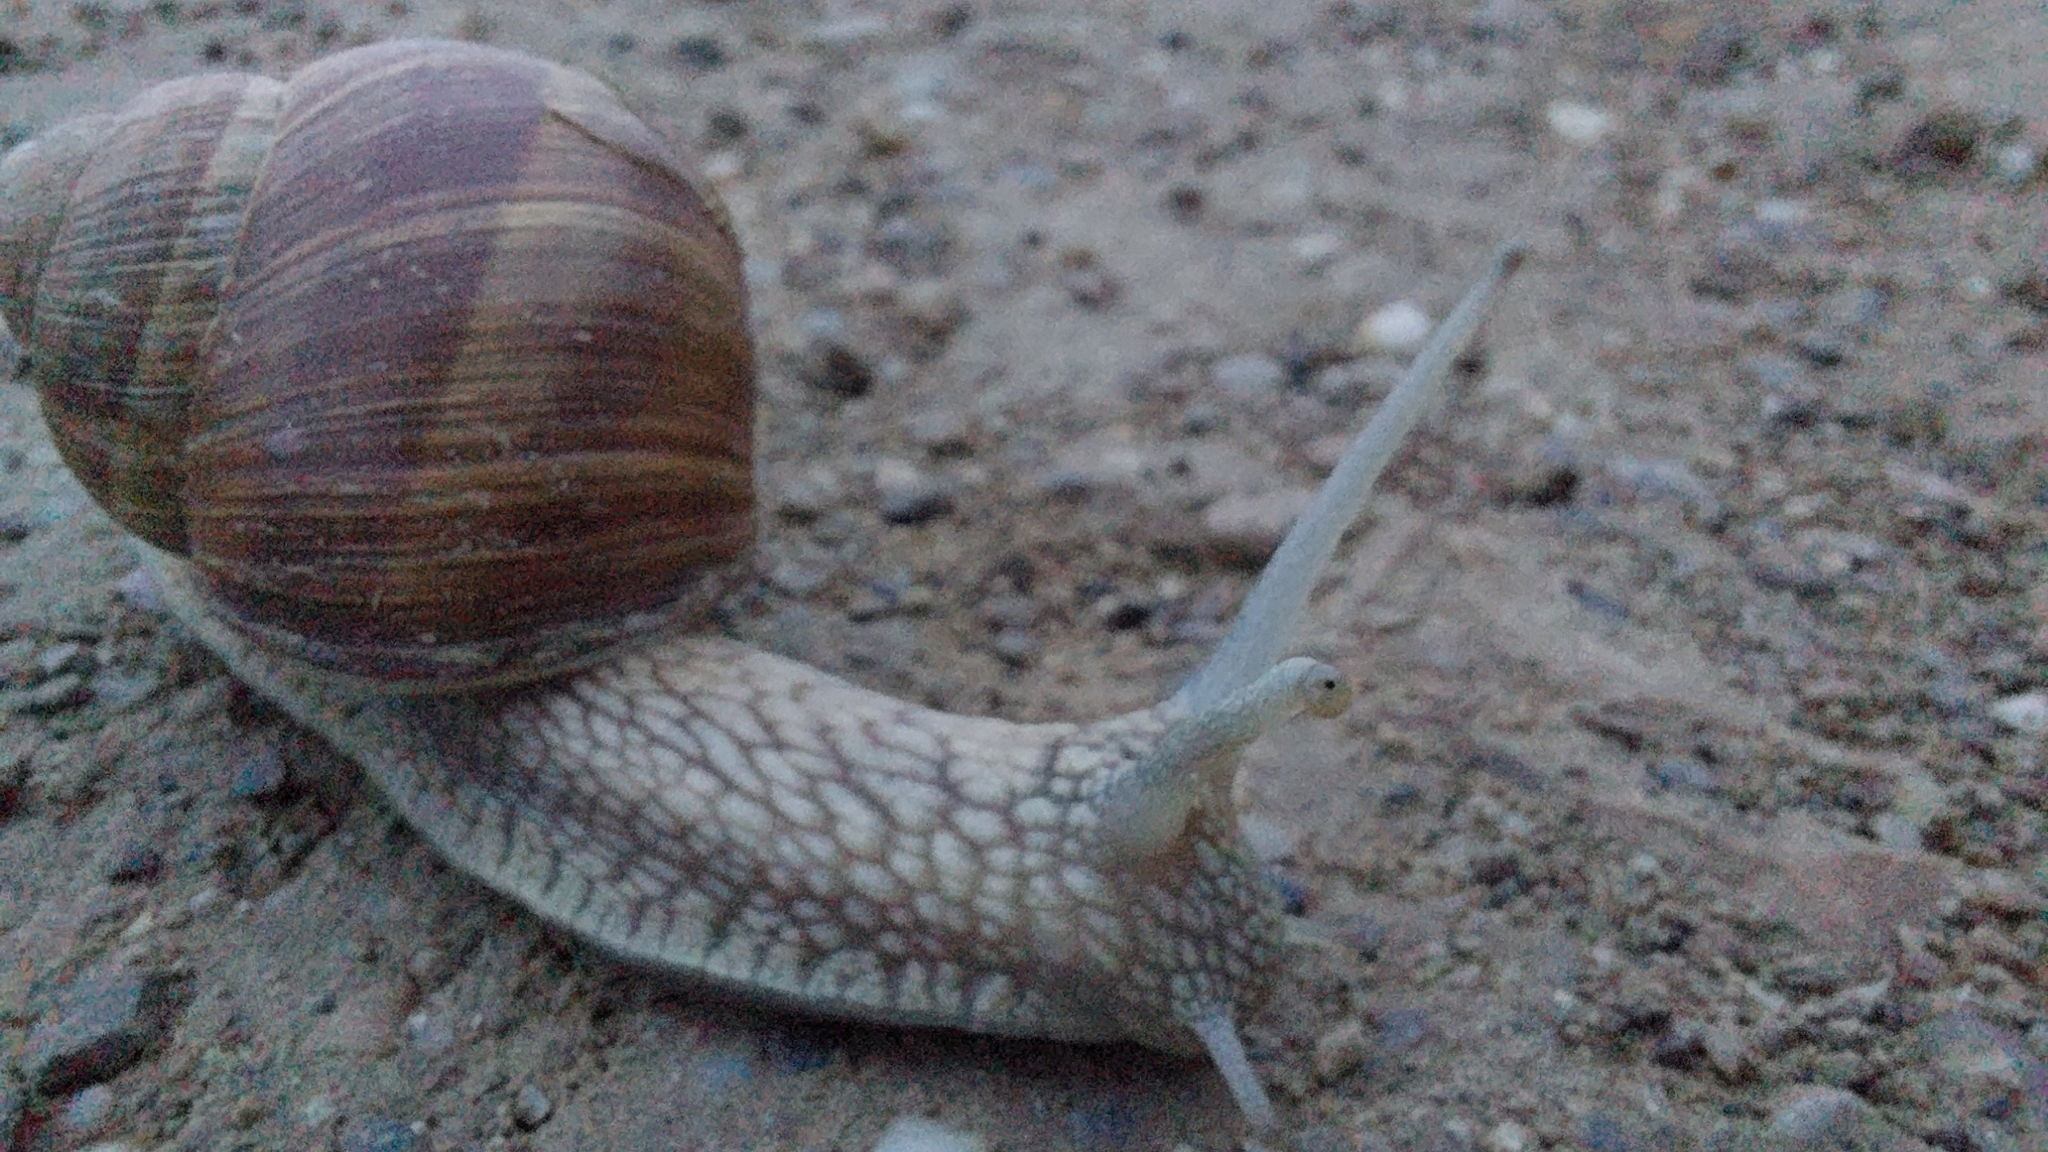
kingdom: Animalia
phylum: Mollusca
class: Gastropoda
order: Stylommatophora
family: Helicidae
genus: Helix
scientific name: Helix pomatia
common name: Roman snail
